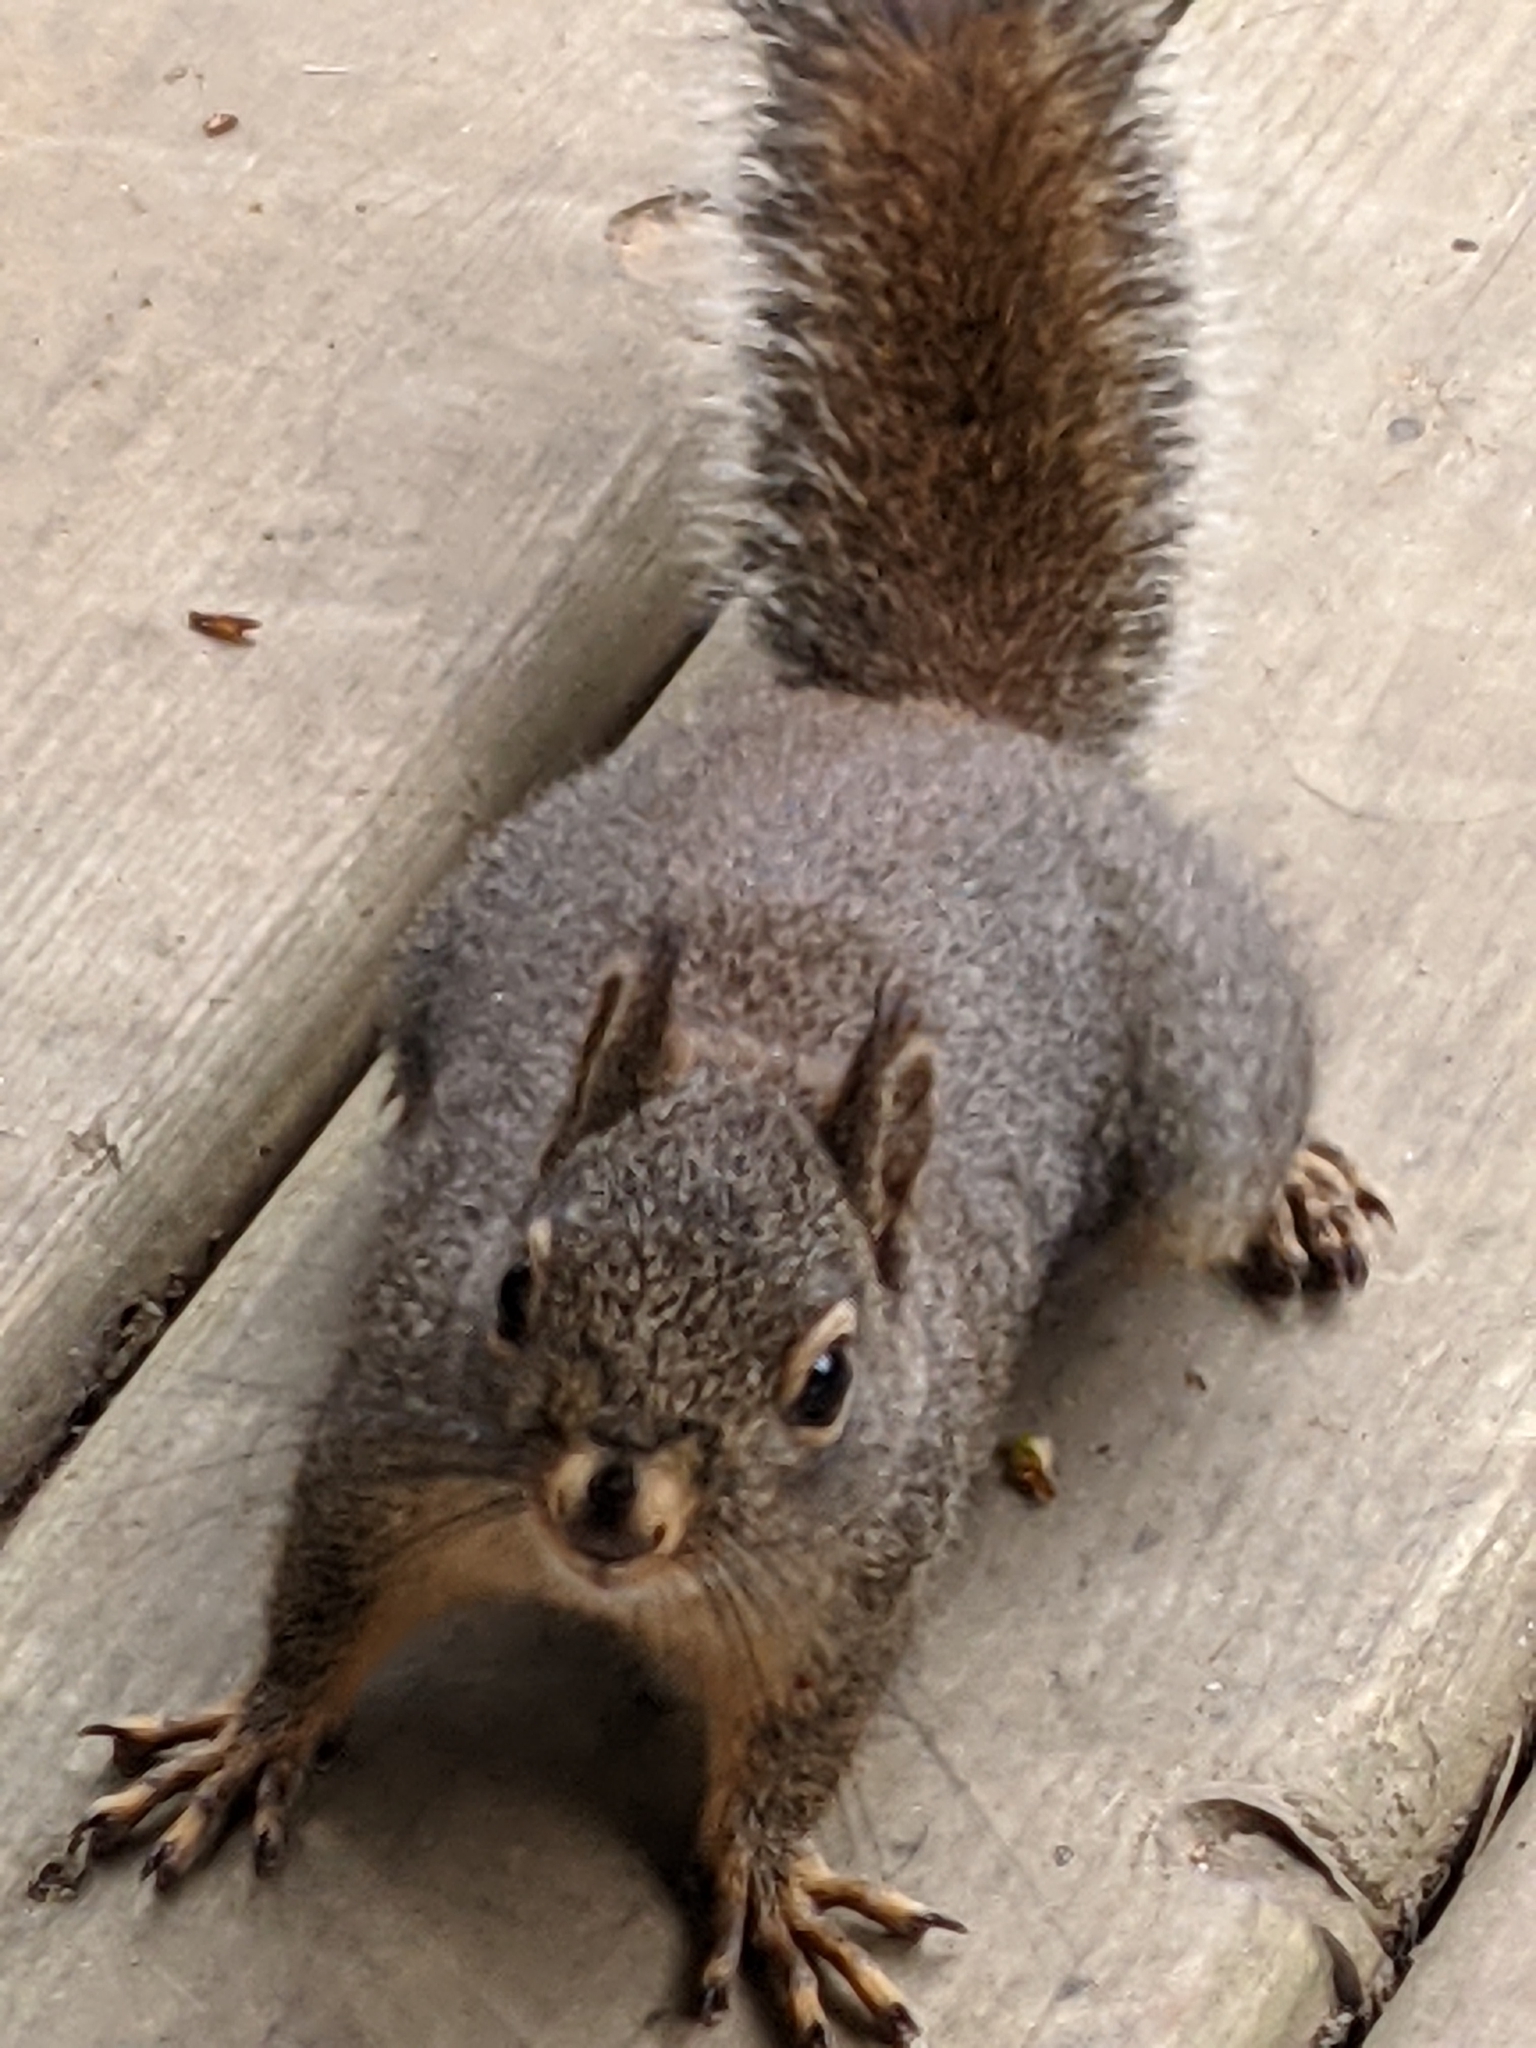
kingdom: Animalia
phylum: Chordata
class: Mammalia
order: Rodentia
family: Sciuridae
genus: Tamiasciurus
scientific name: Tamiasciurus douglasii
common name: Douglas's squirrel
